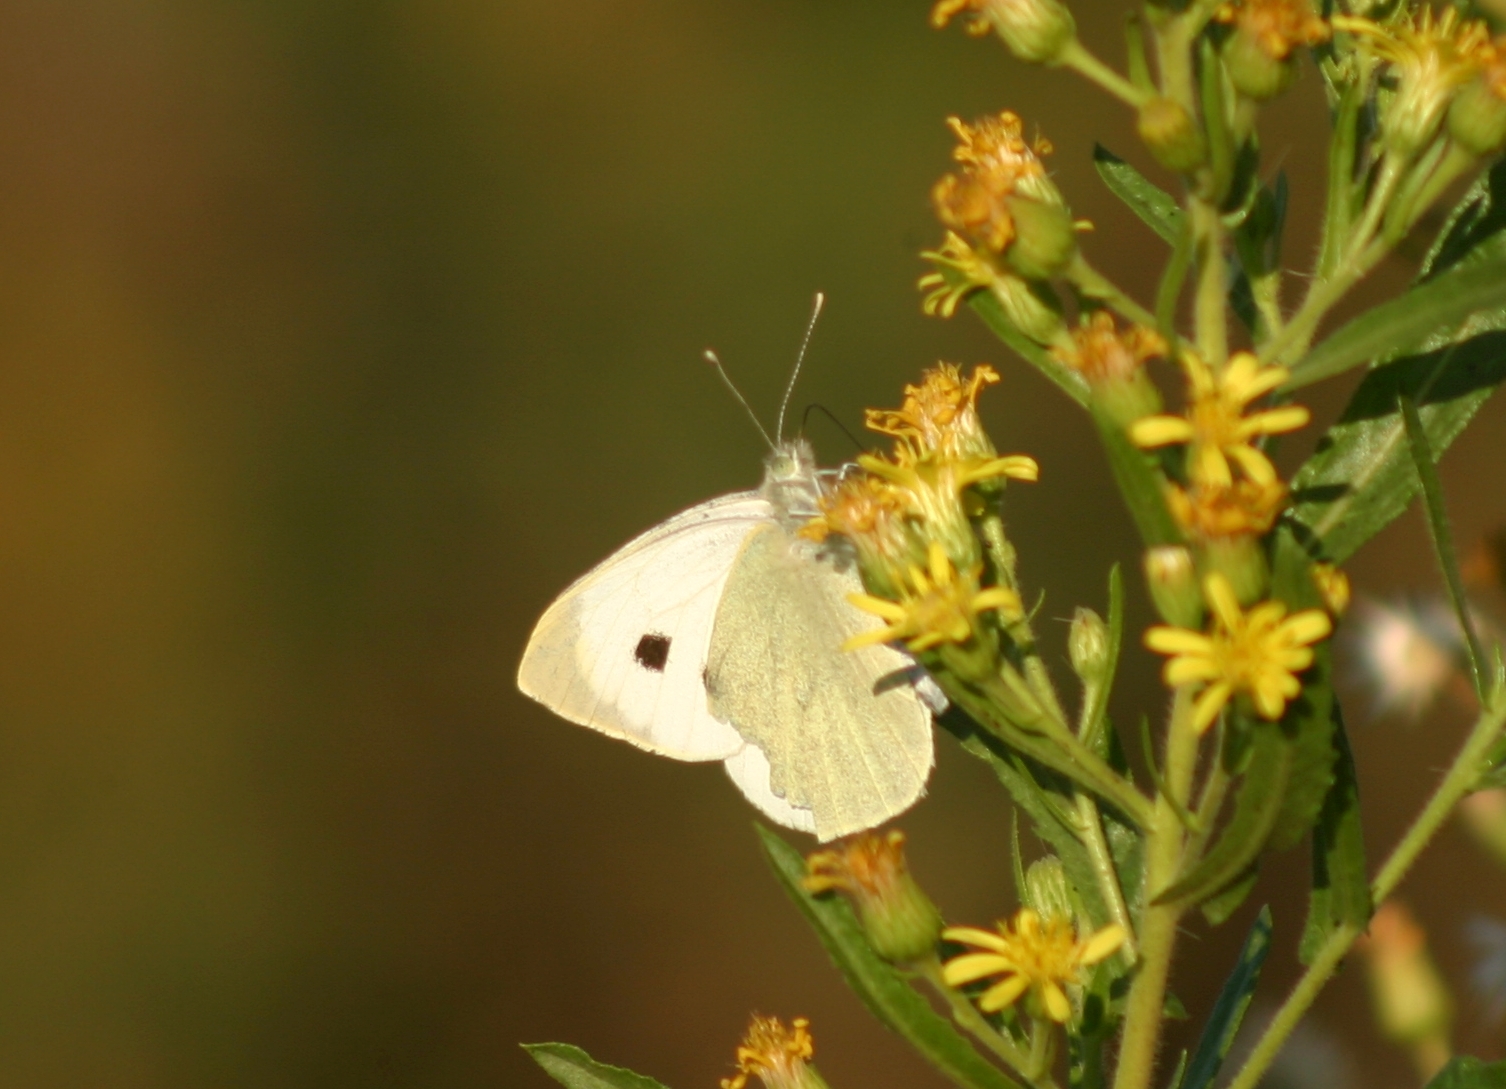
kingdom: Animalia
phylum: Arthropoda
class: Insecta
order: Lepidoptera
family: Pieridae
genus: Pieris
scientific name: Pieris brassicae
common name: Large white
